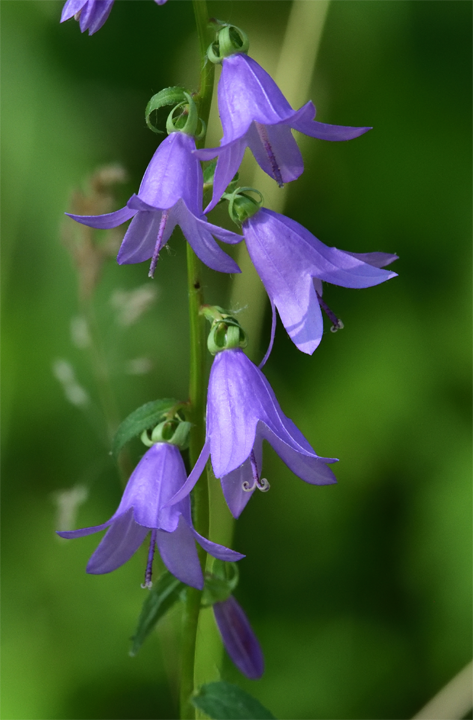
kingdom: Plantae
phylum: Tracheophyta
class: Magnoliopsida
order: Asterales
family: Campanulaceae
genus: Campanula
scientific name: Campanula rapunculoides
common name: Creeping bellflower
